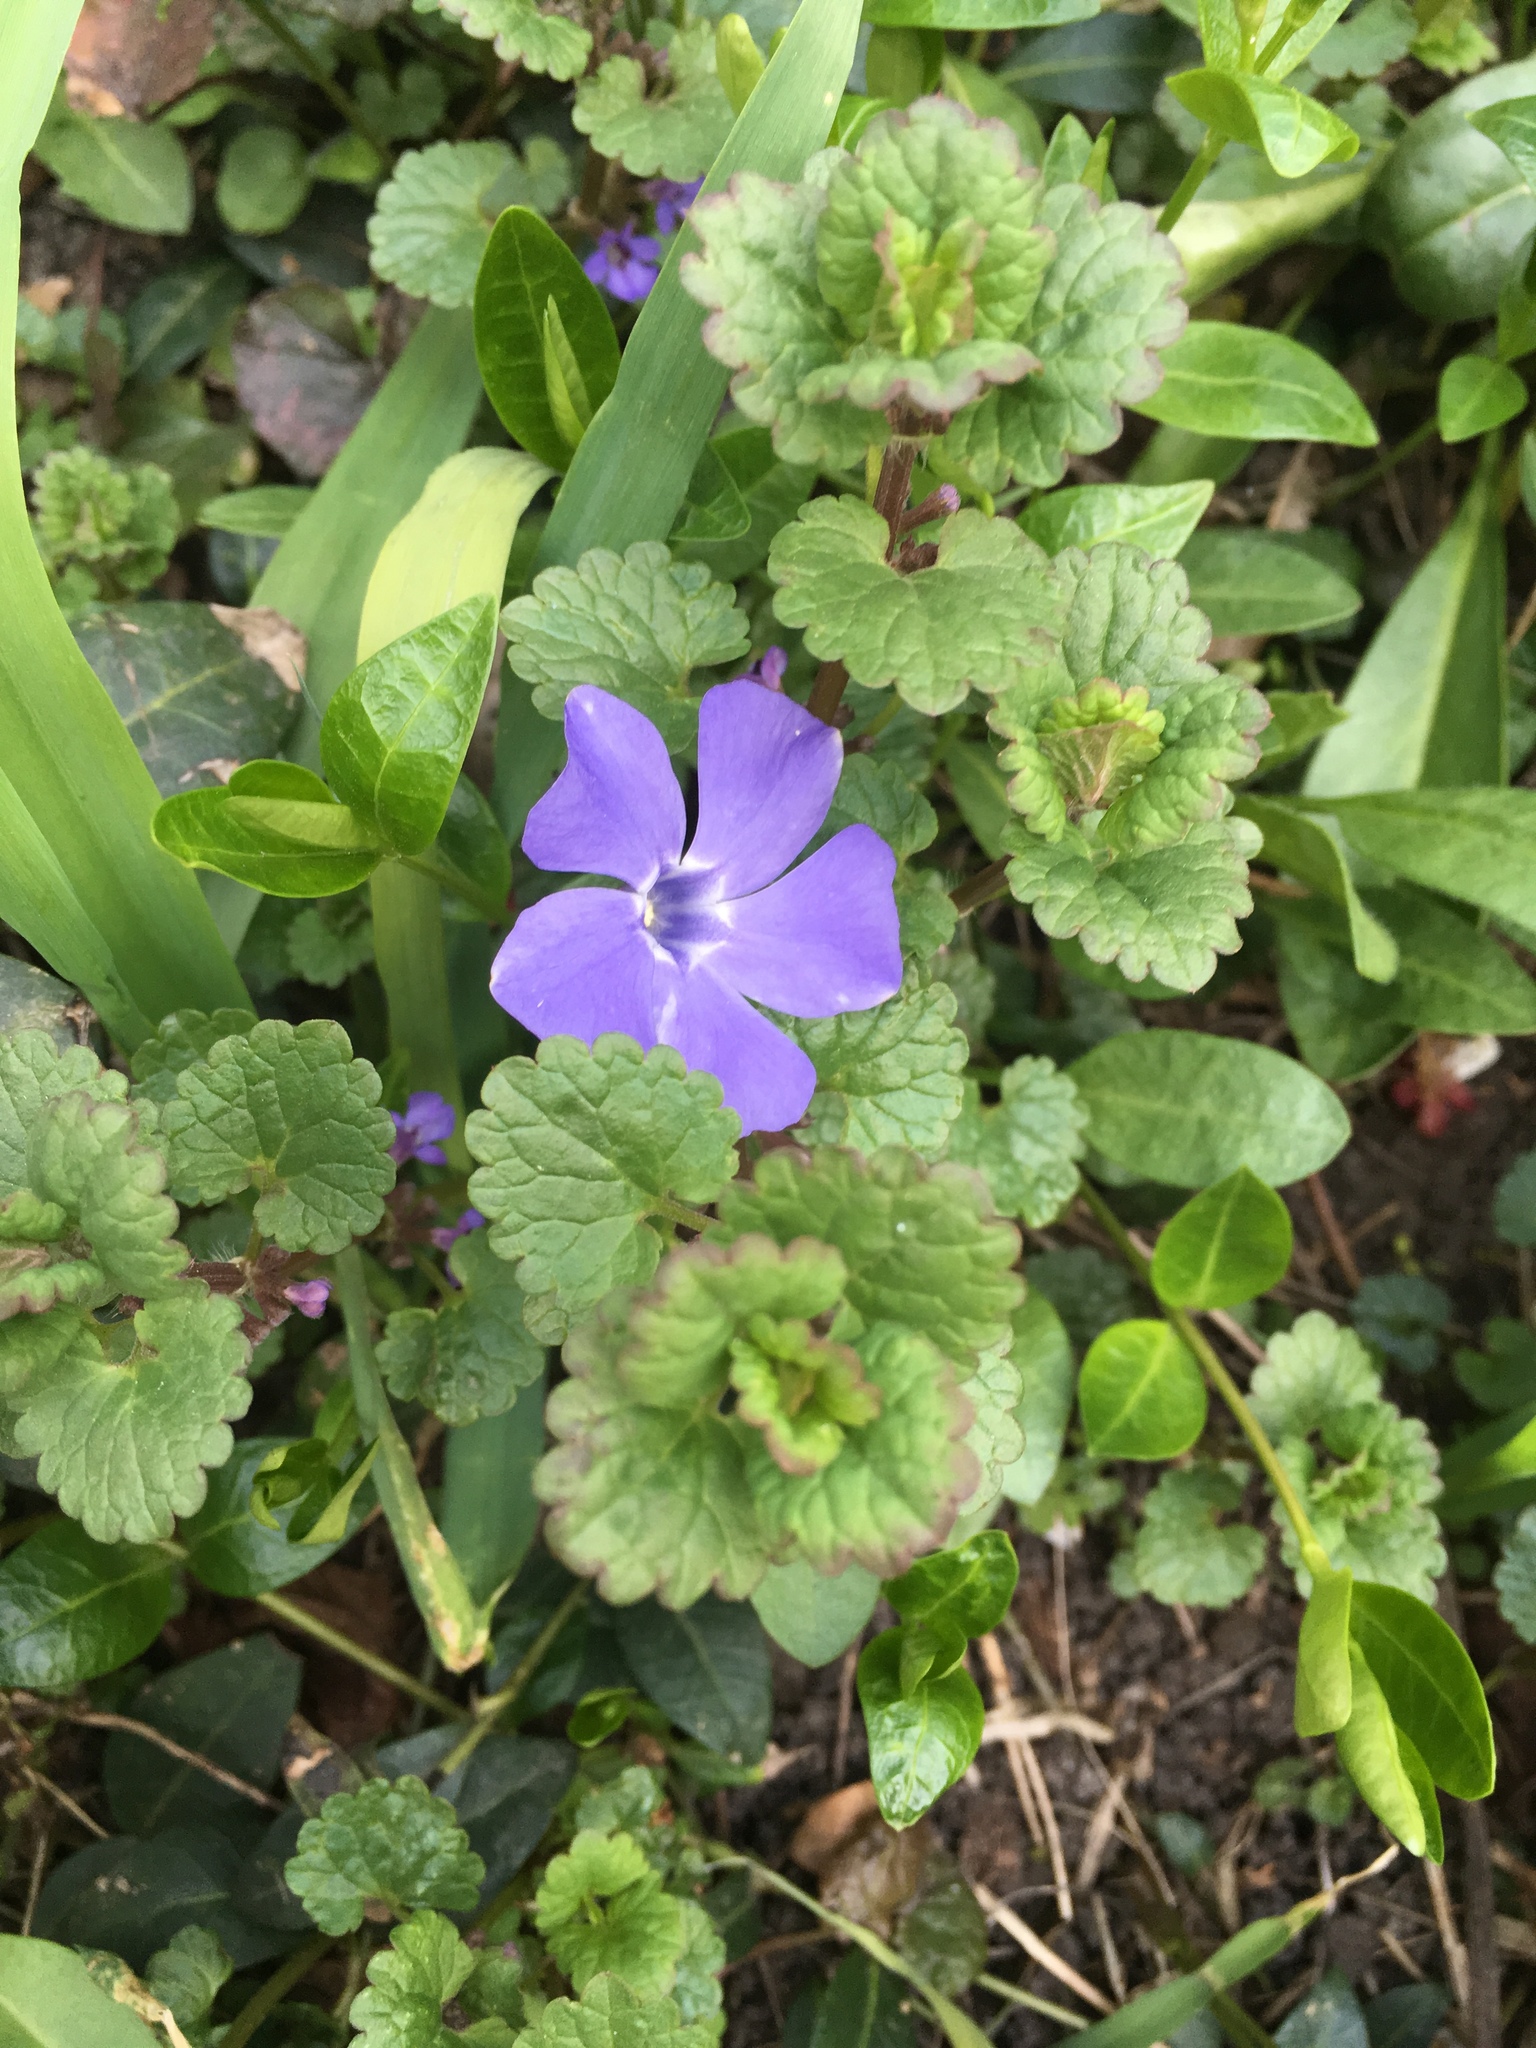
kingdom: Plantae
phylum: Tracheophyta
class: Magnoliopsida
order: Lamiales
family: Lamiaceae
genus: Glechoma
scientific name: Glechoma hederacea
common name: Ground ivy
